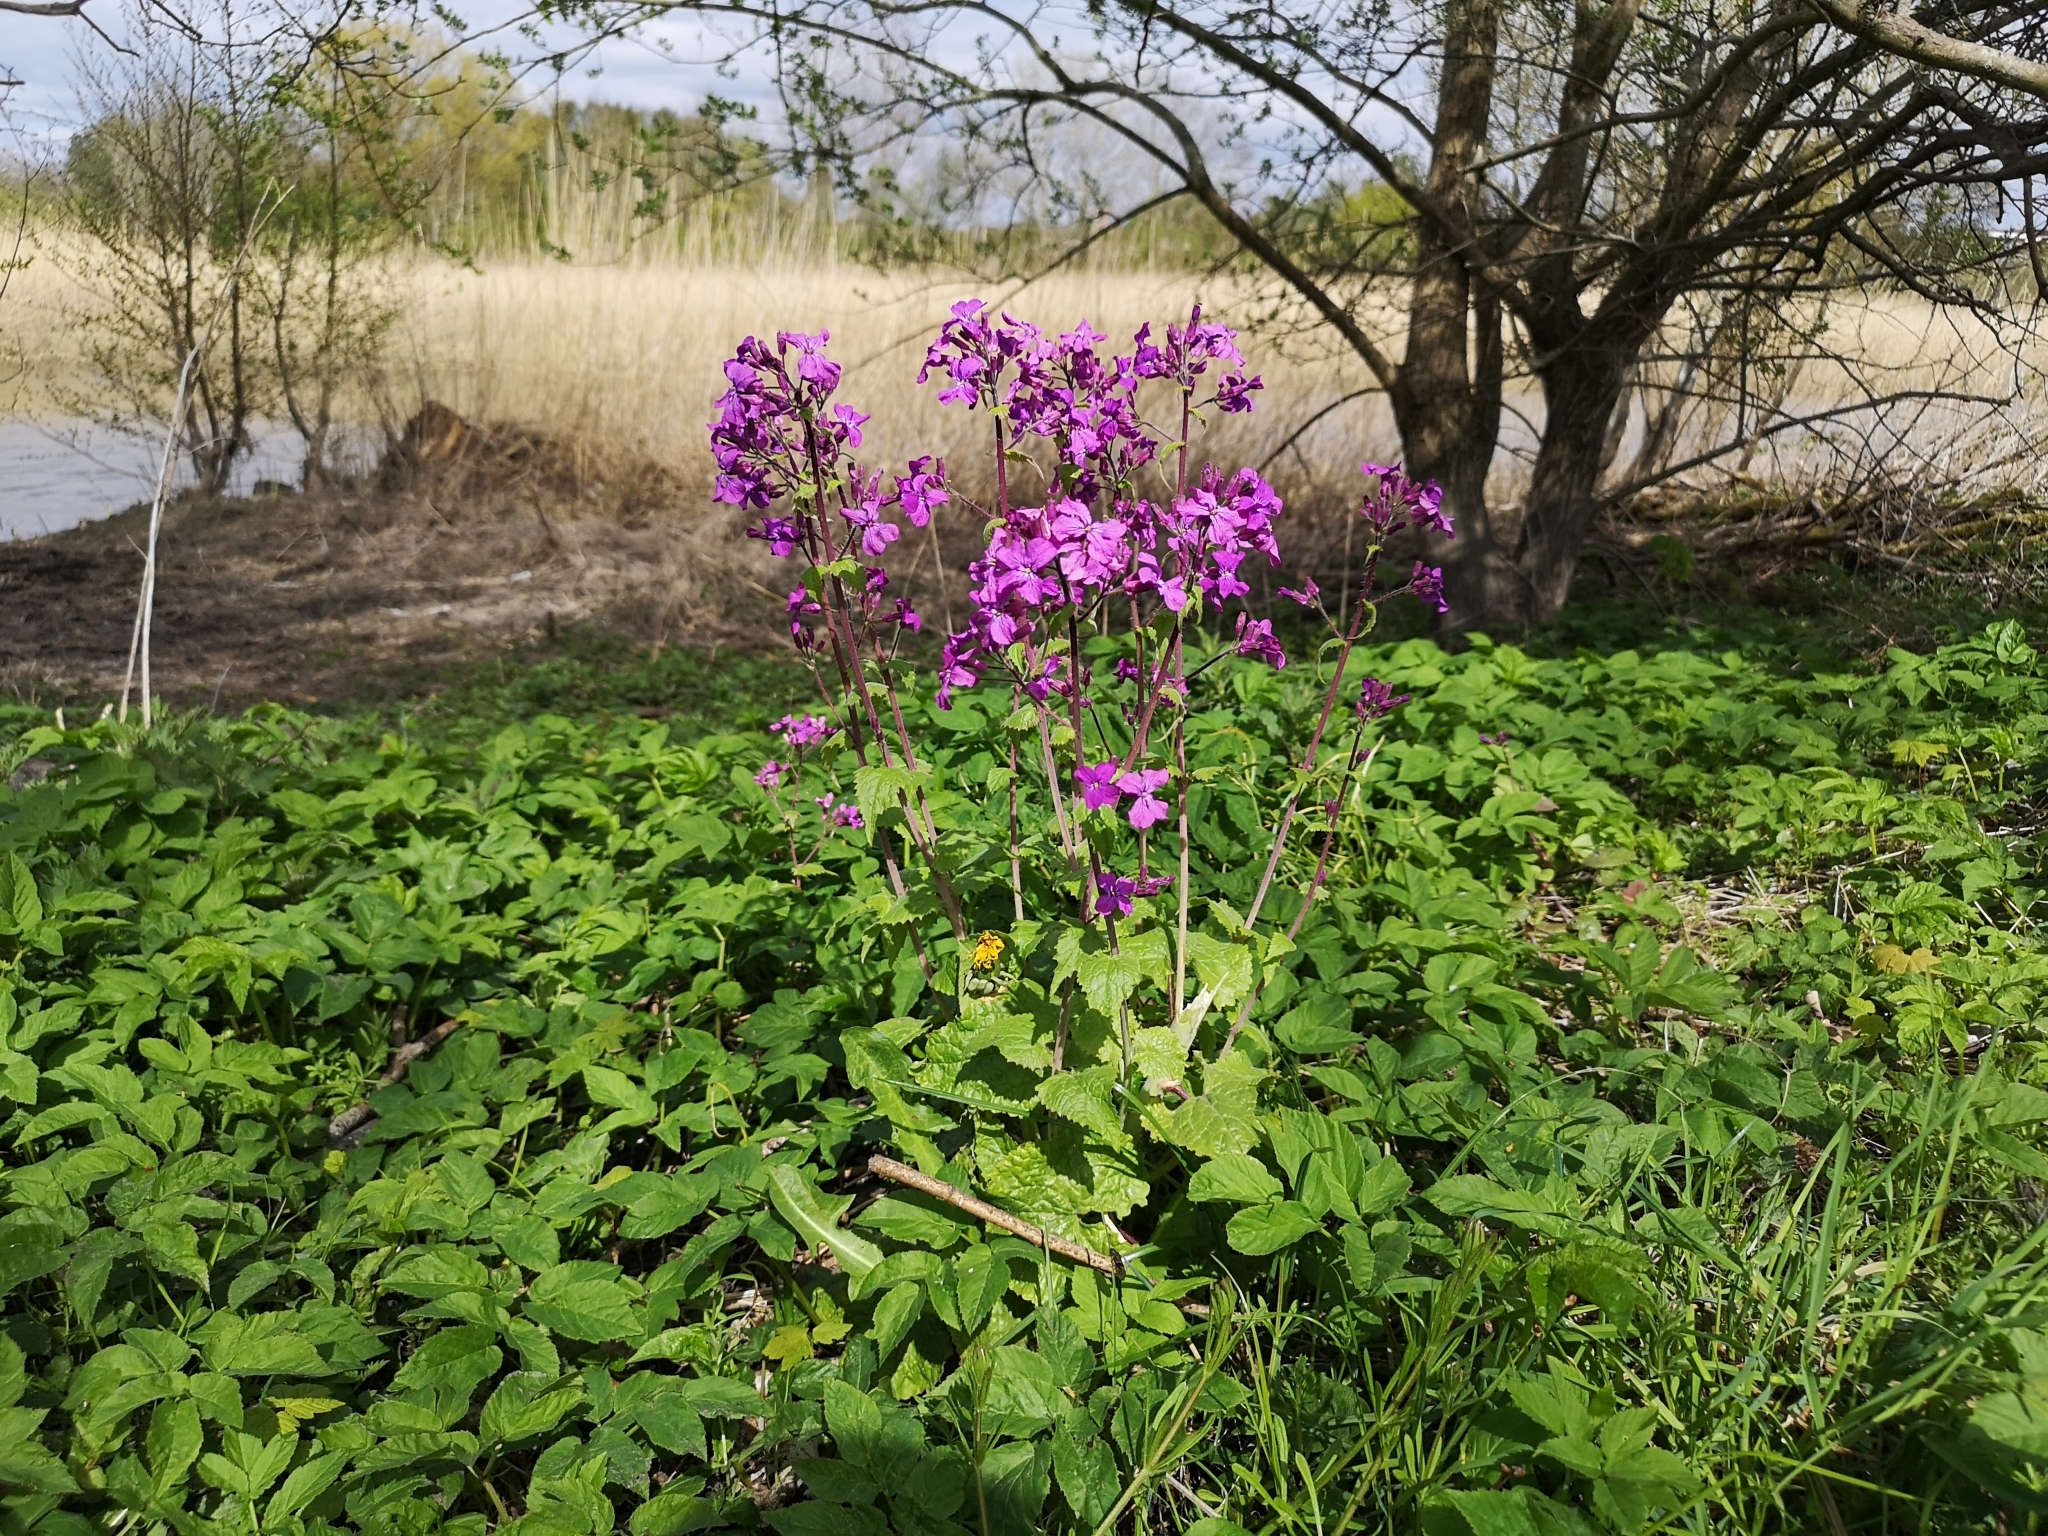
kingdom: Plantae
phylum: Tracheophyta
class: Magnoliopsida
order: Brassicales
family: Brassicaceae
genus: Lunaria
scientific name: Lunaria annua
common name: Honesty
